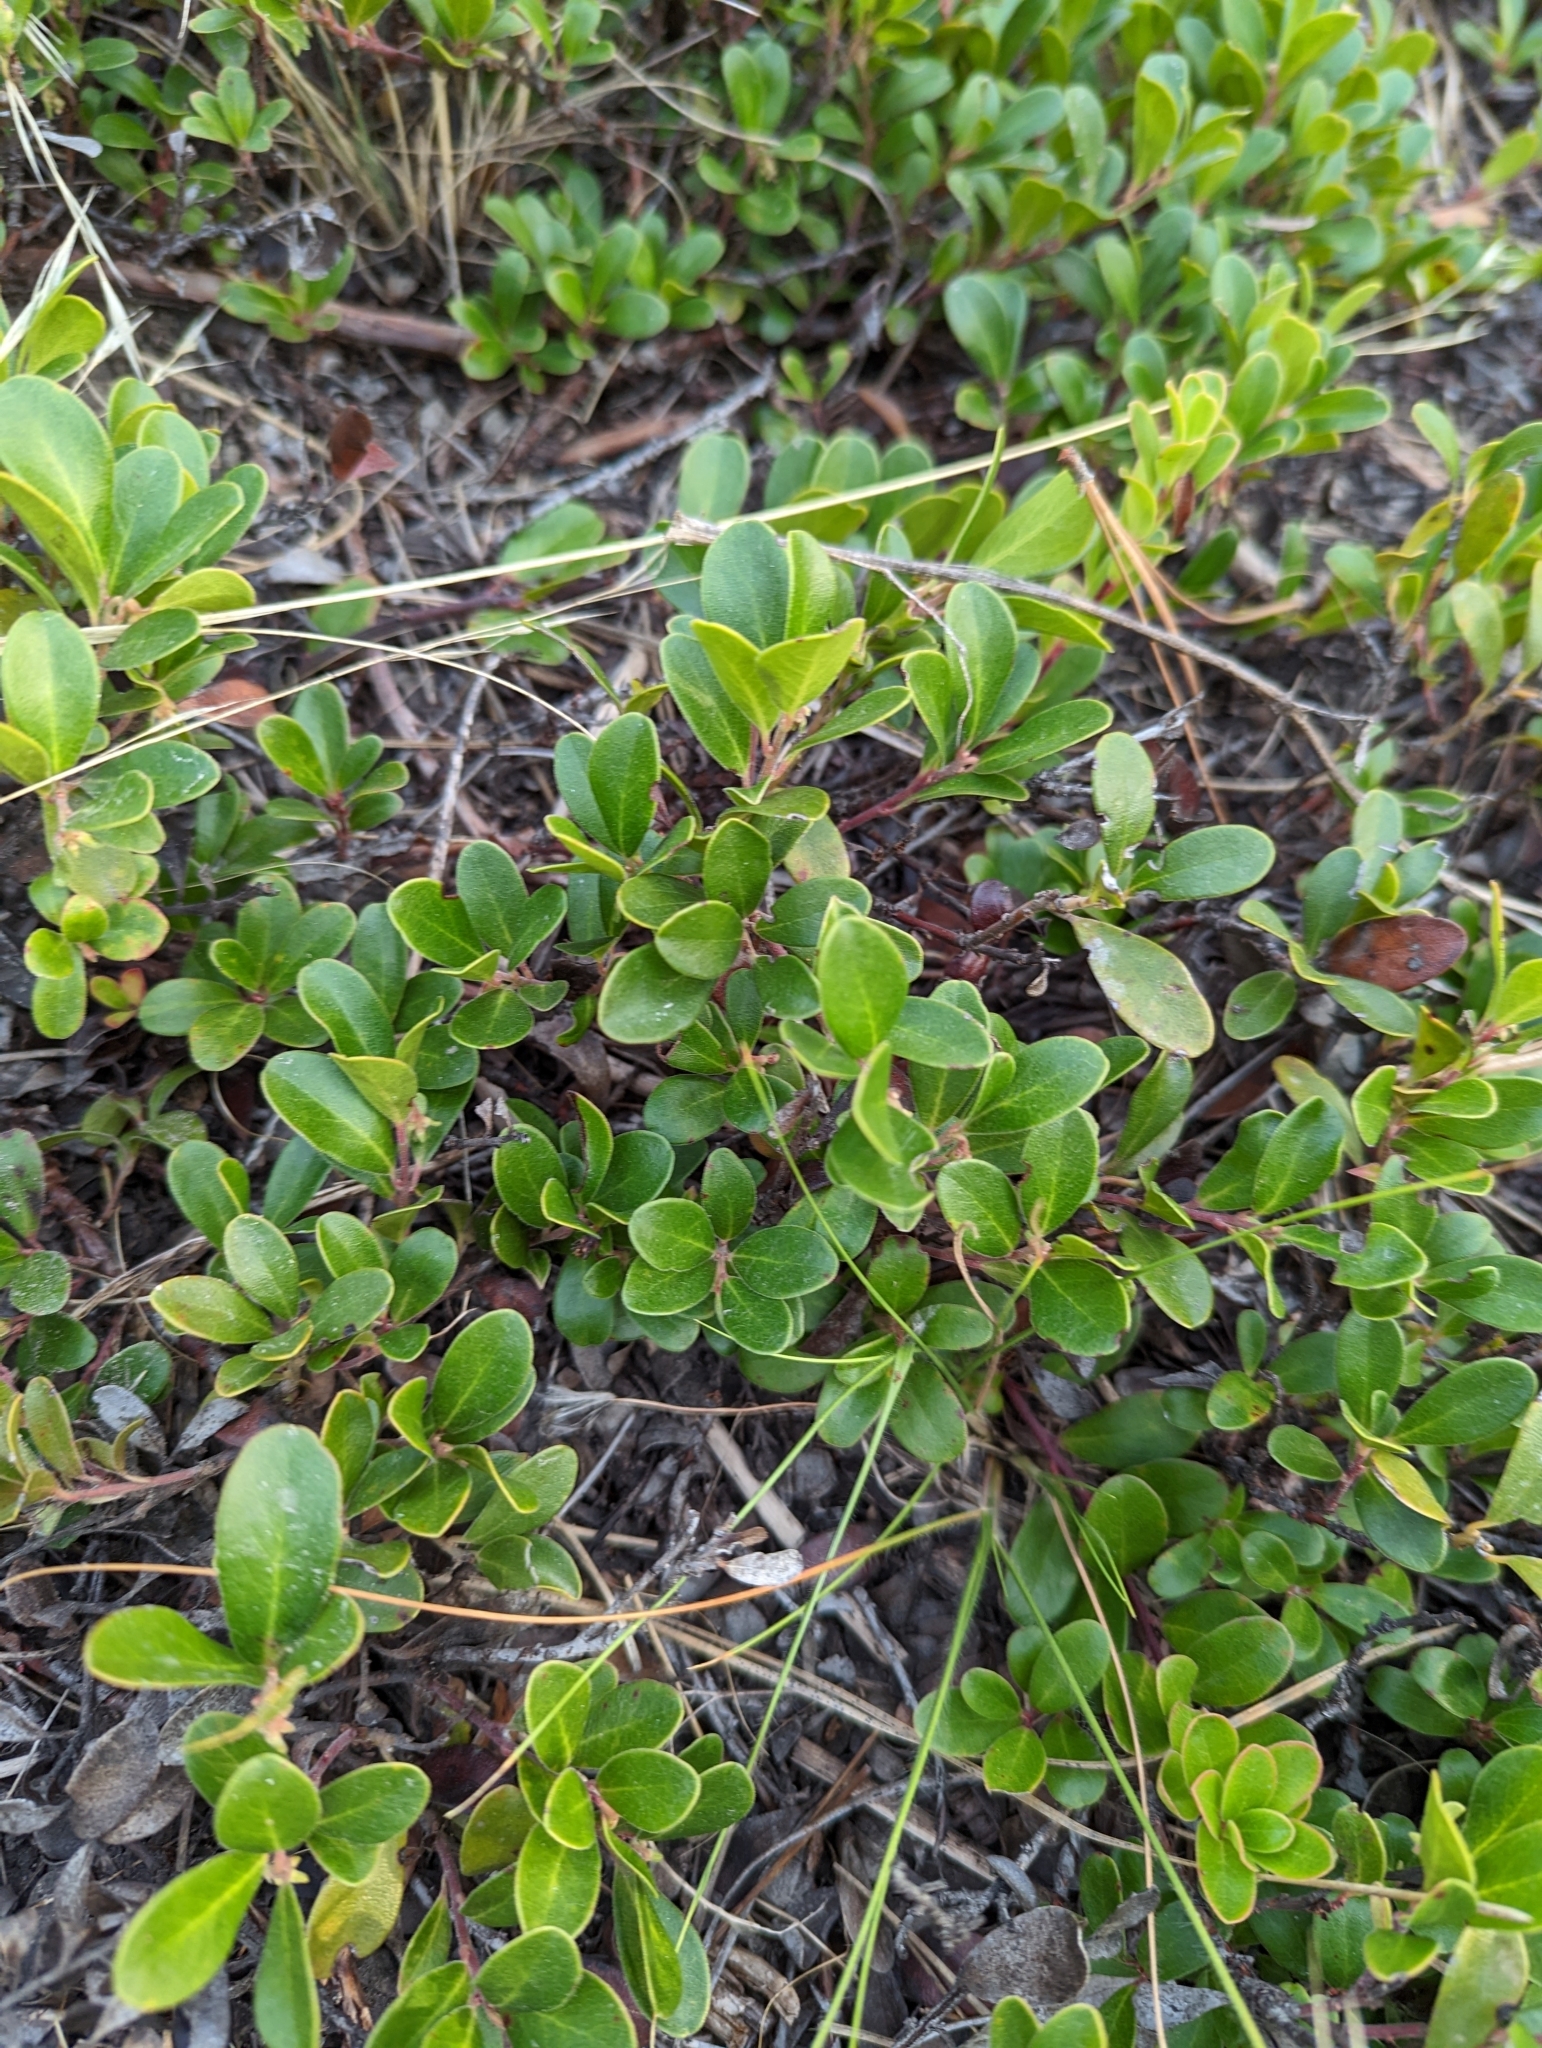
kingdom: Plantae
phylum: Tracheophyta
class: Magnoliopsida
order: Ericales
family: Ericaceae
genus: Arctostaphylos
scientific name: Arctostaphylos uva-ursi
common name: Bearberry
